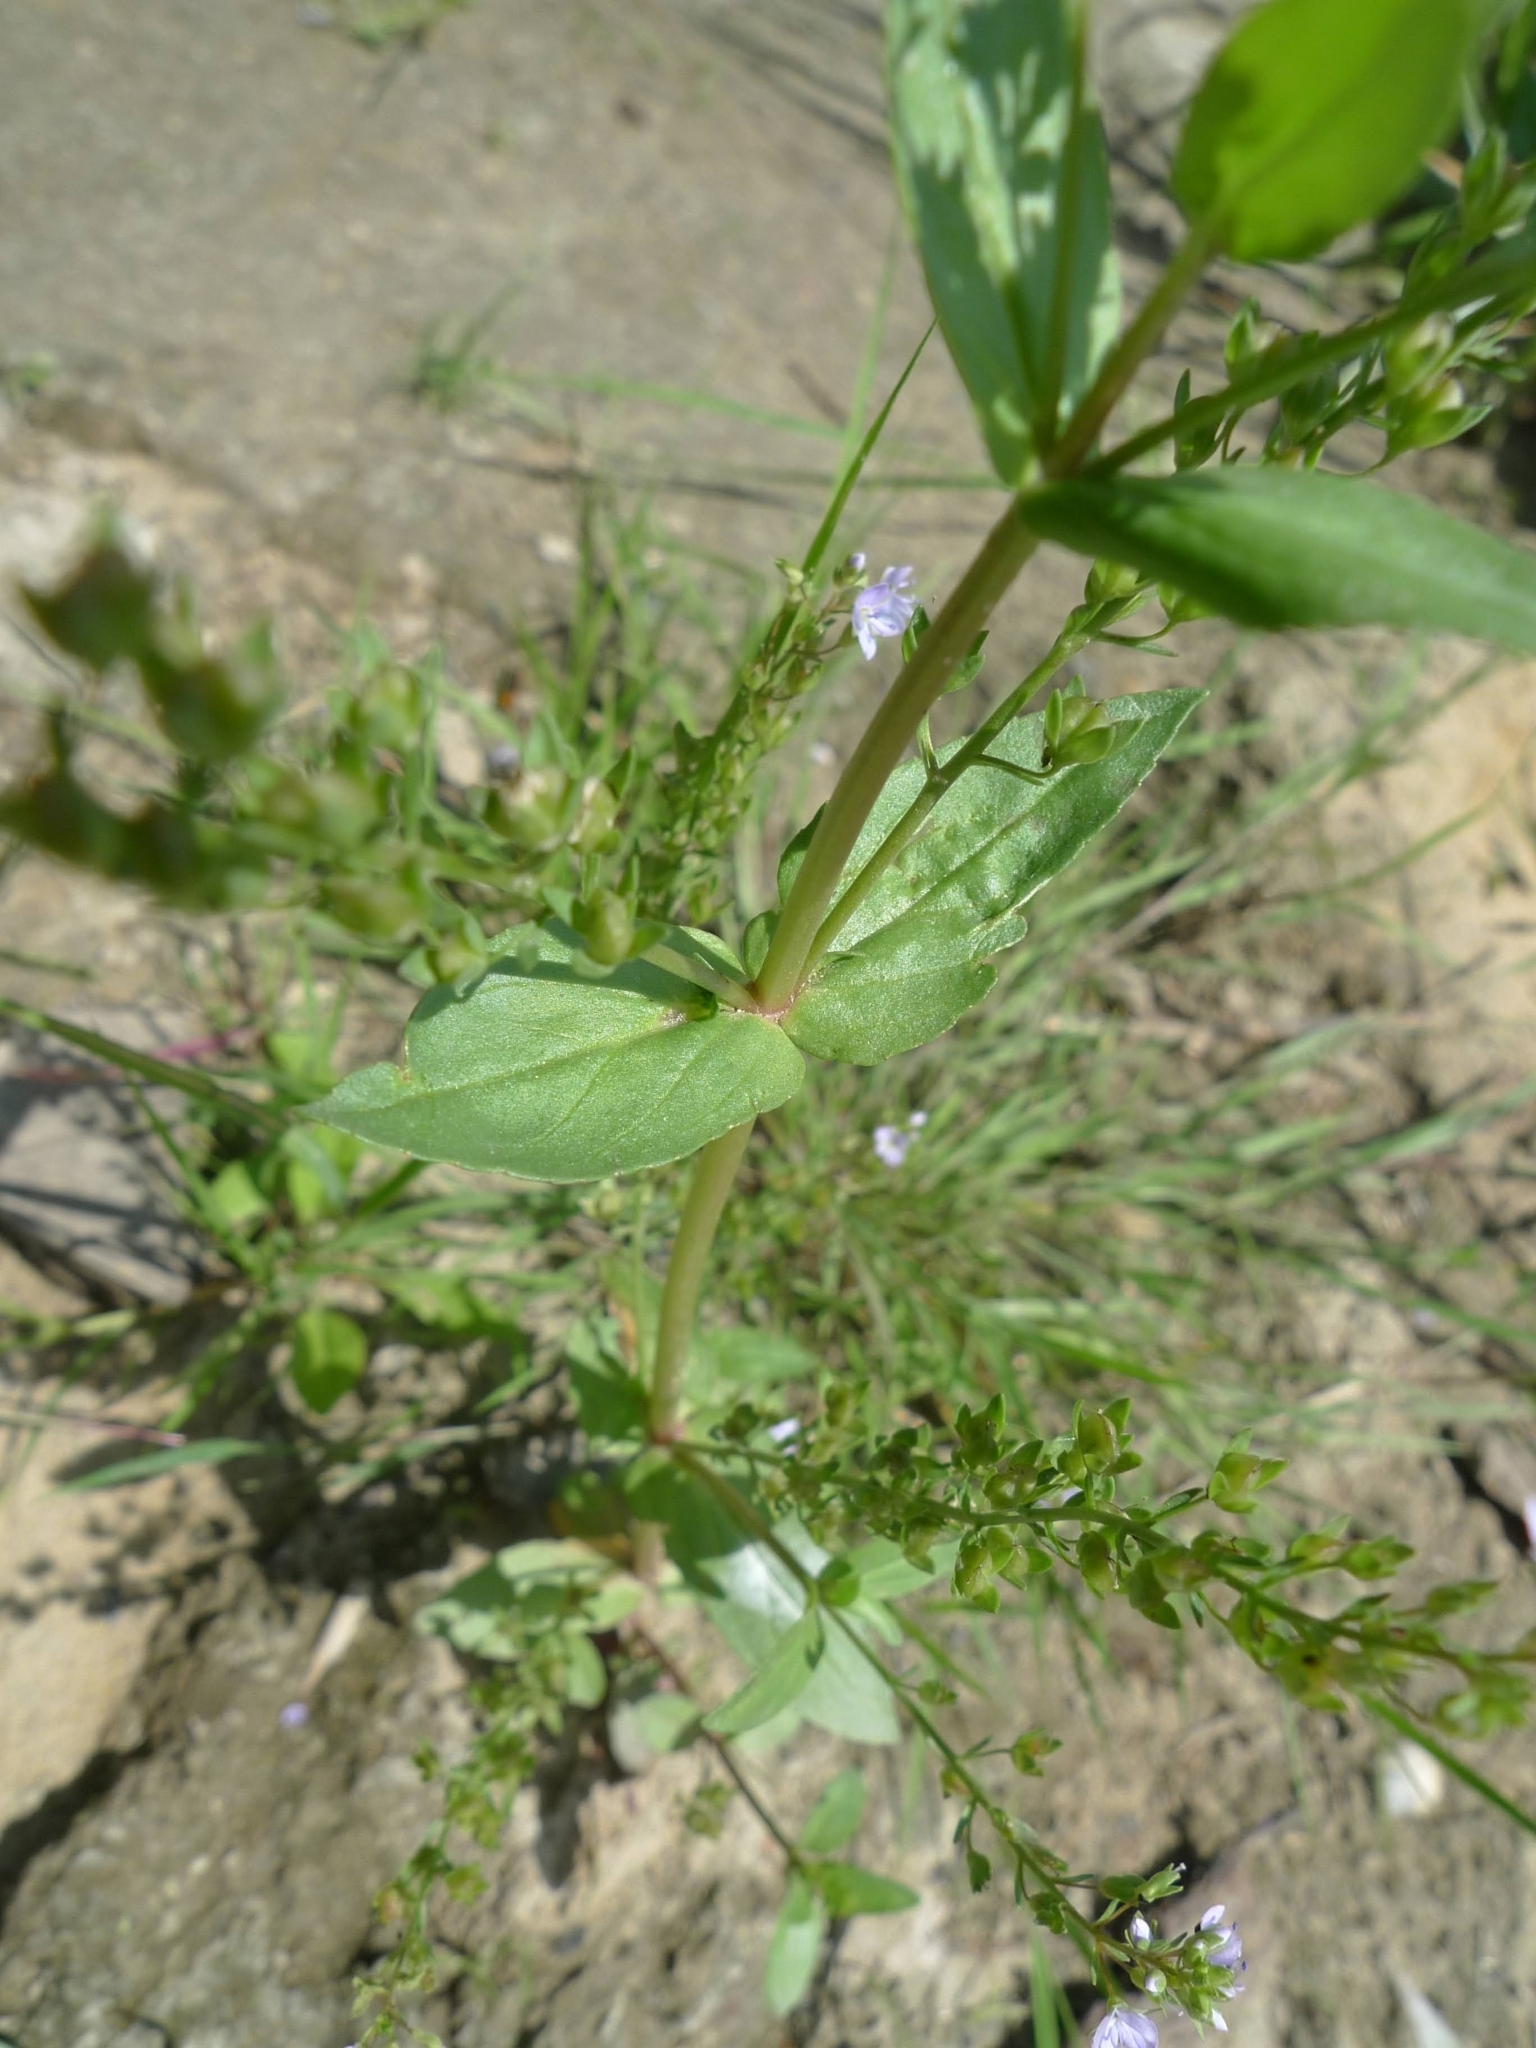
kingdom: Plantae
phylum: Tracheophyta
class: Magnoliopsida
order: Lamiales
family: Plantaginaceae
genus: Veronica
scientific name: Veronica anagallis-aquatica
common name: Water speedwell
